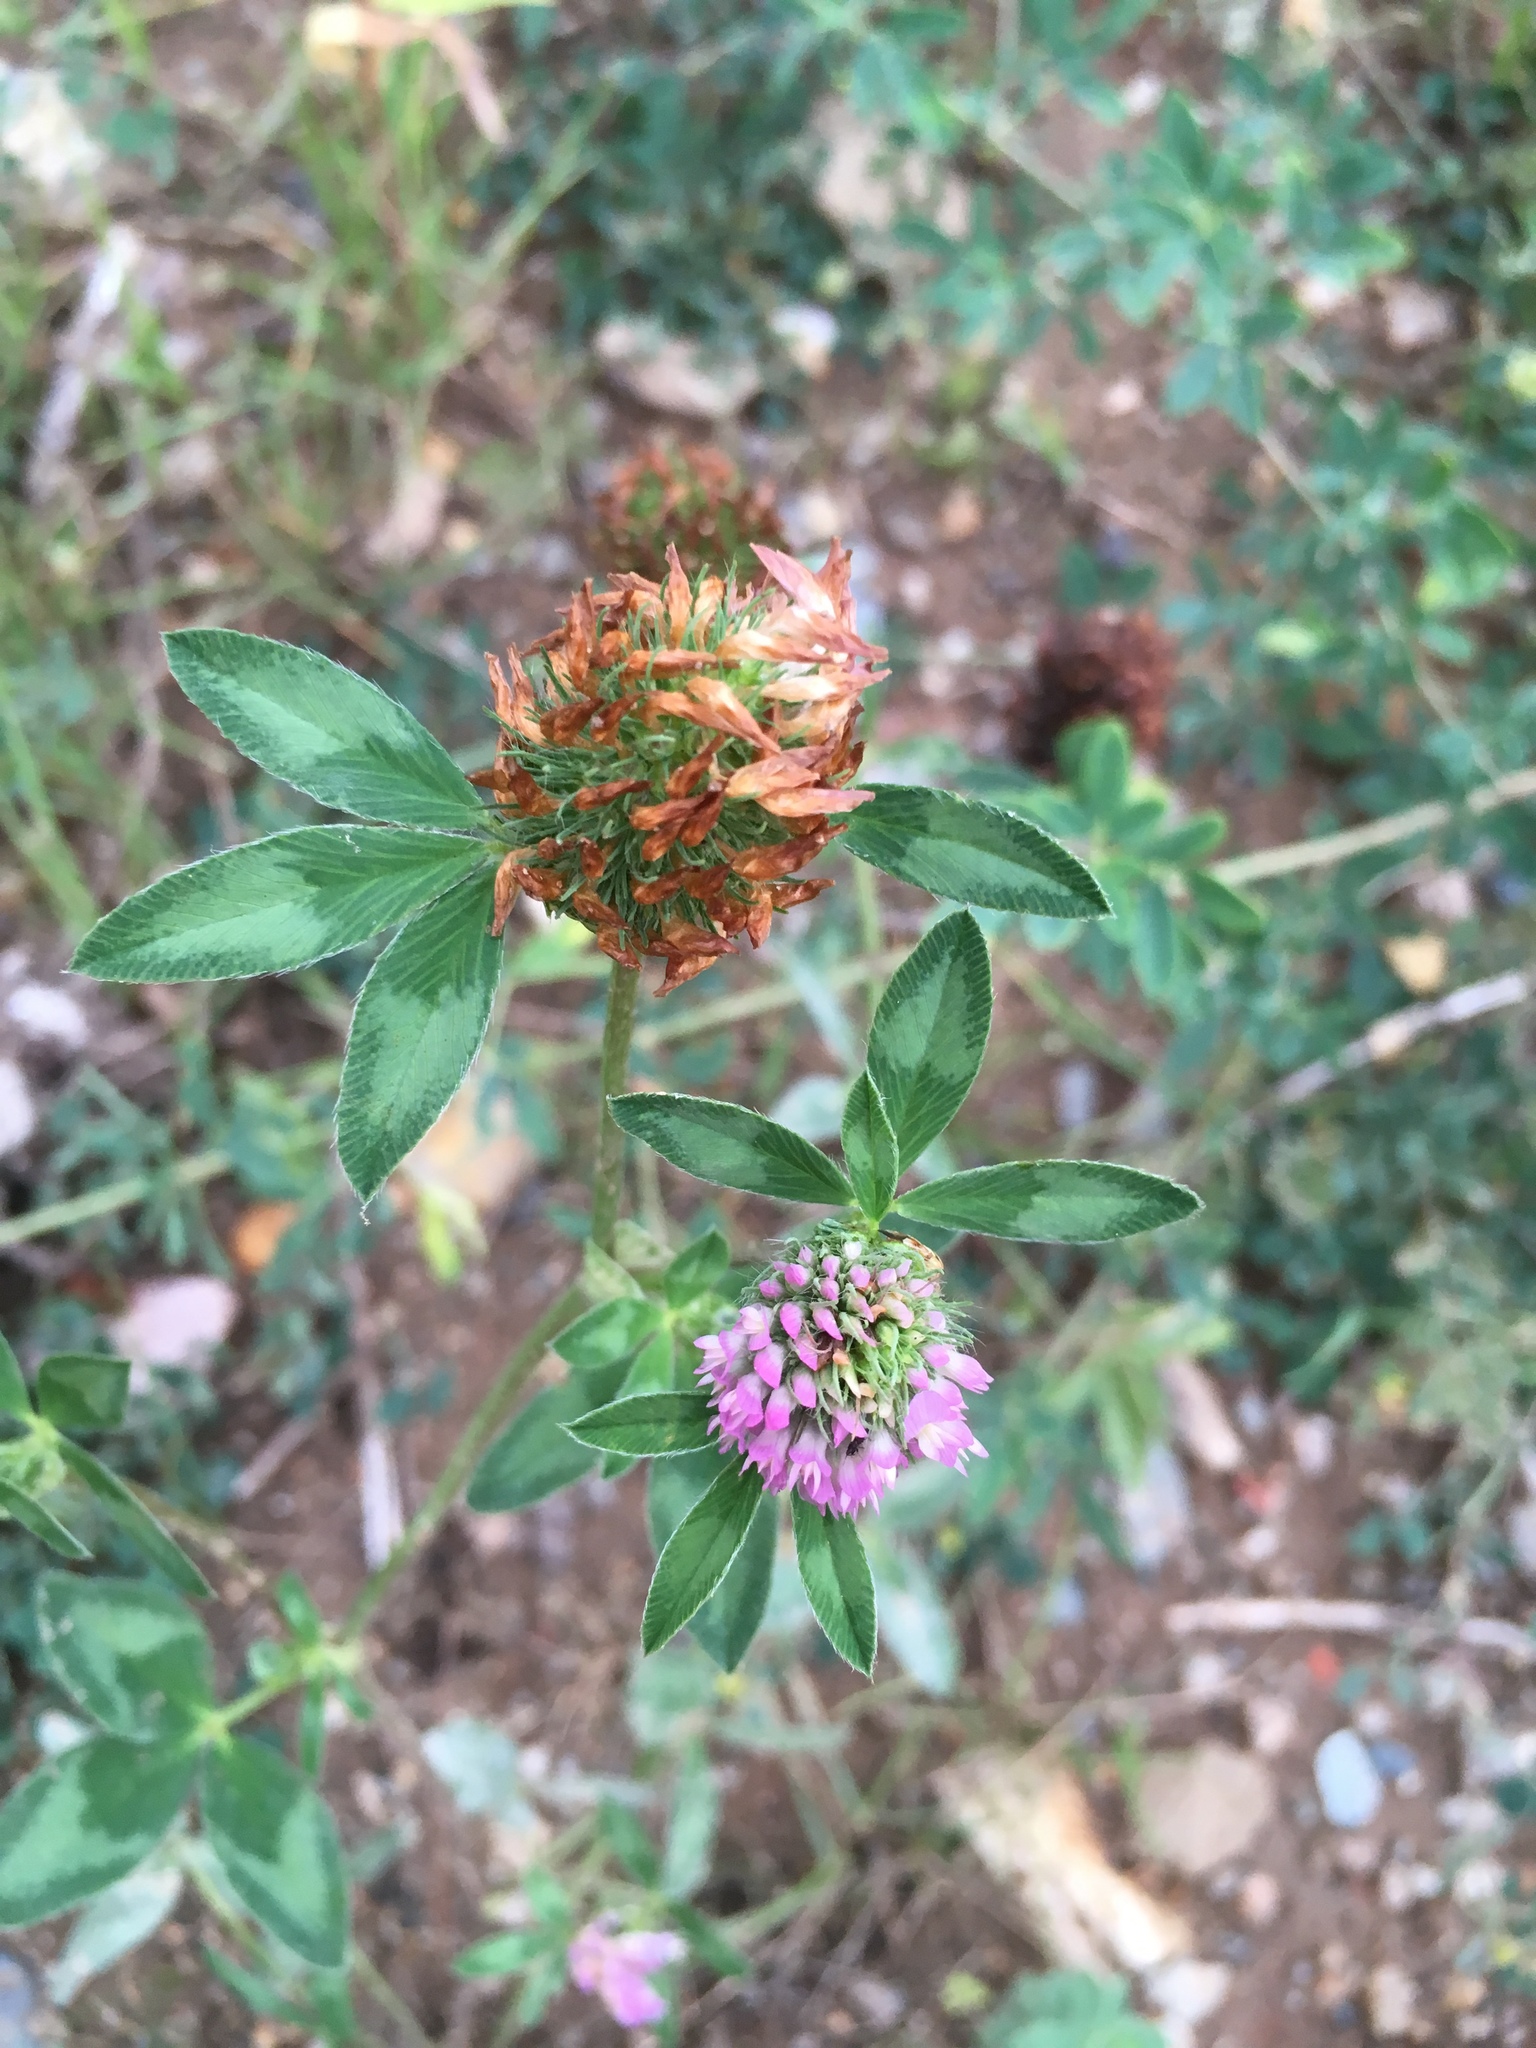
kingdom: Plantae
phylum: Tracheophyta
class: Magnoliopsida
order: Fabales
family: Fabaceae
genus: Trifolium
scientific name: Trifolium pratense
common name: Red clover
